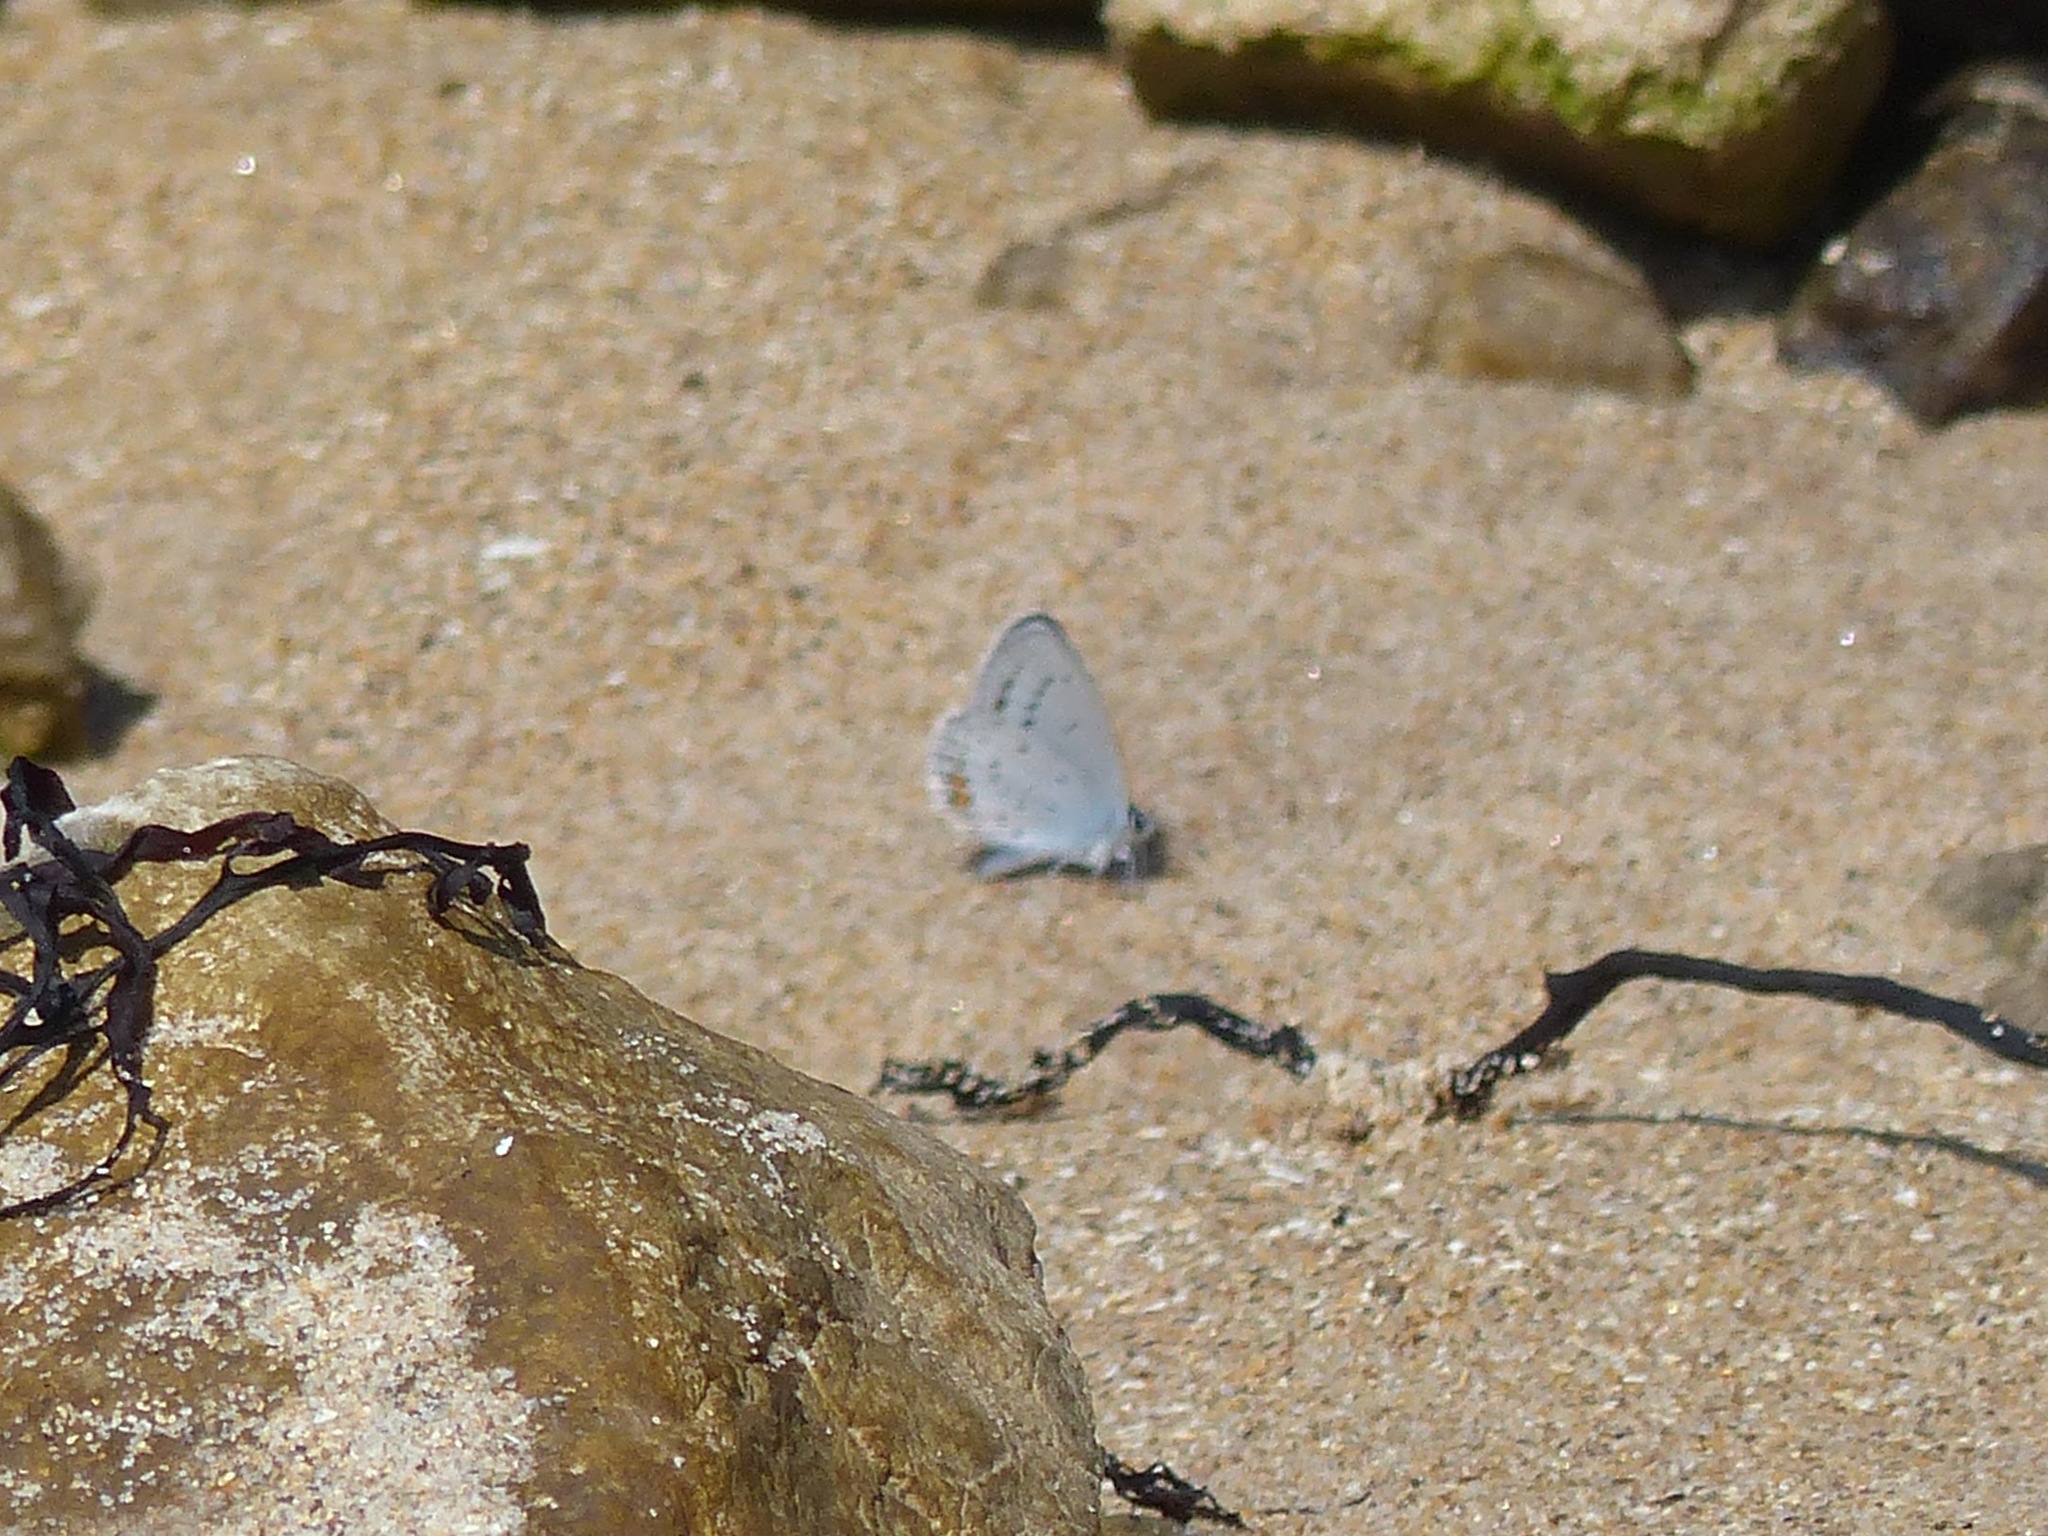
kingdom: Animalia
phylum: Arthropoda
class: Insecta
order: Lepidoptera
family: Lycaenidae
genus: Elkalyce
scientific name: Elkalyce argiades
